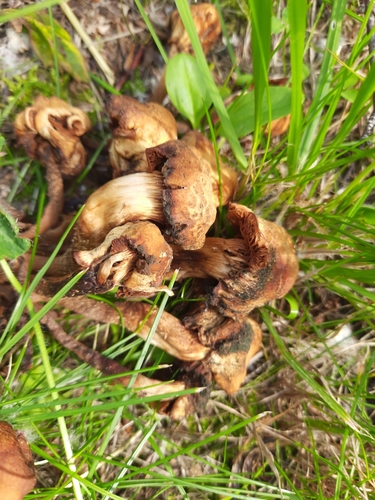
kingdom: Fungi
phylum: Basidiomycota
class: Agaricomycetes
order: Agaricales
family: Strophariaceae
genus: Kuehneromyces
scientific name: Kuehneromyces mutabilis
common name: Sheathed woodtuft
